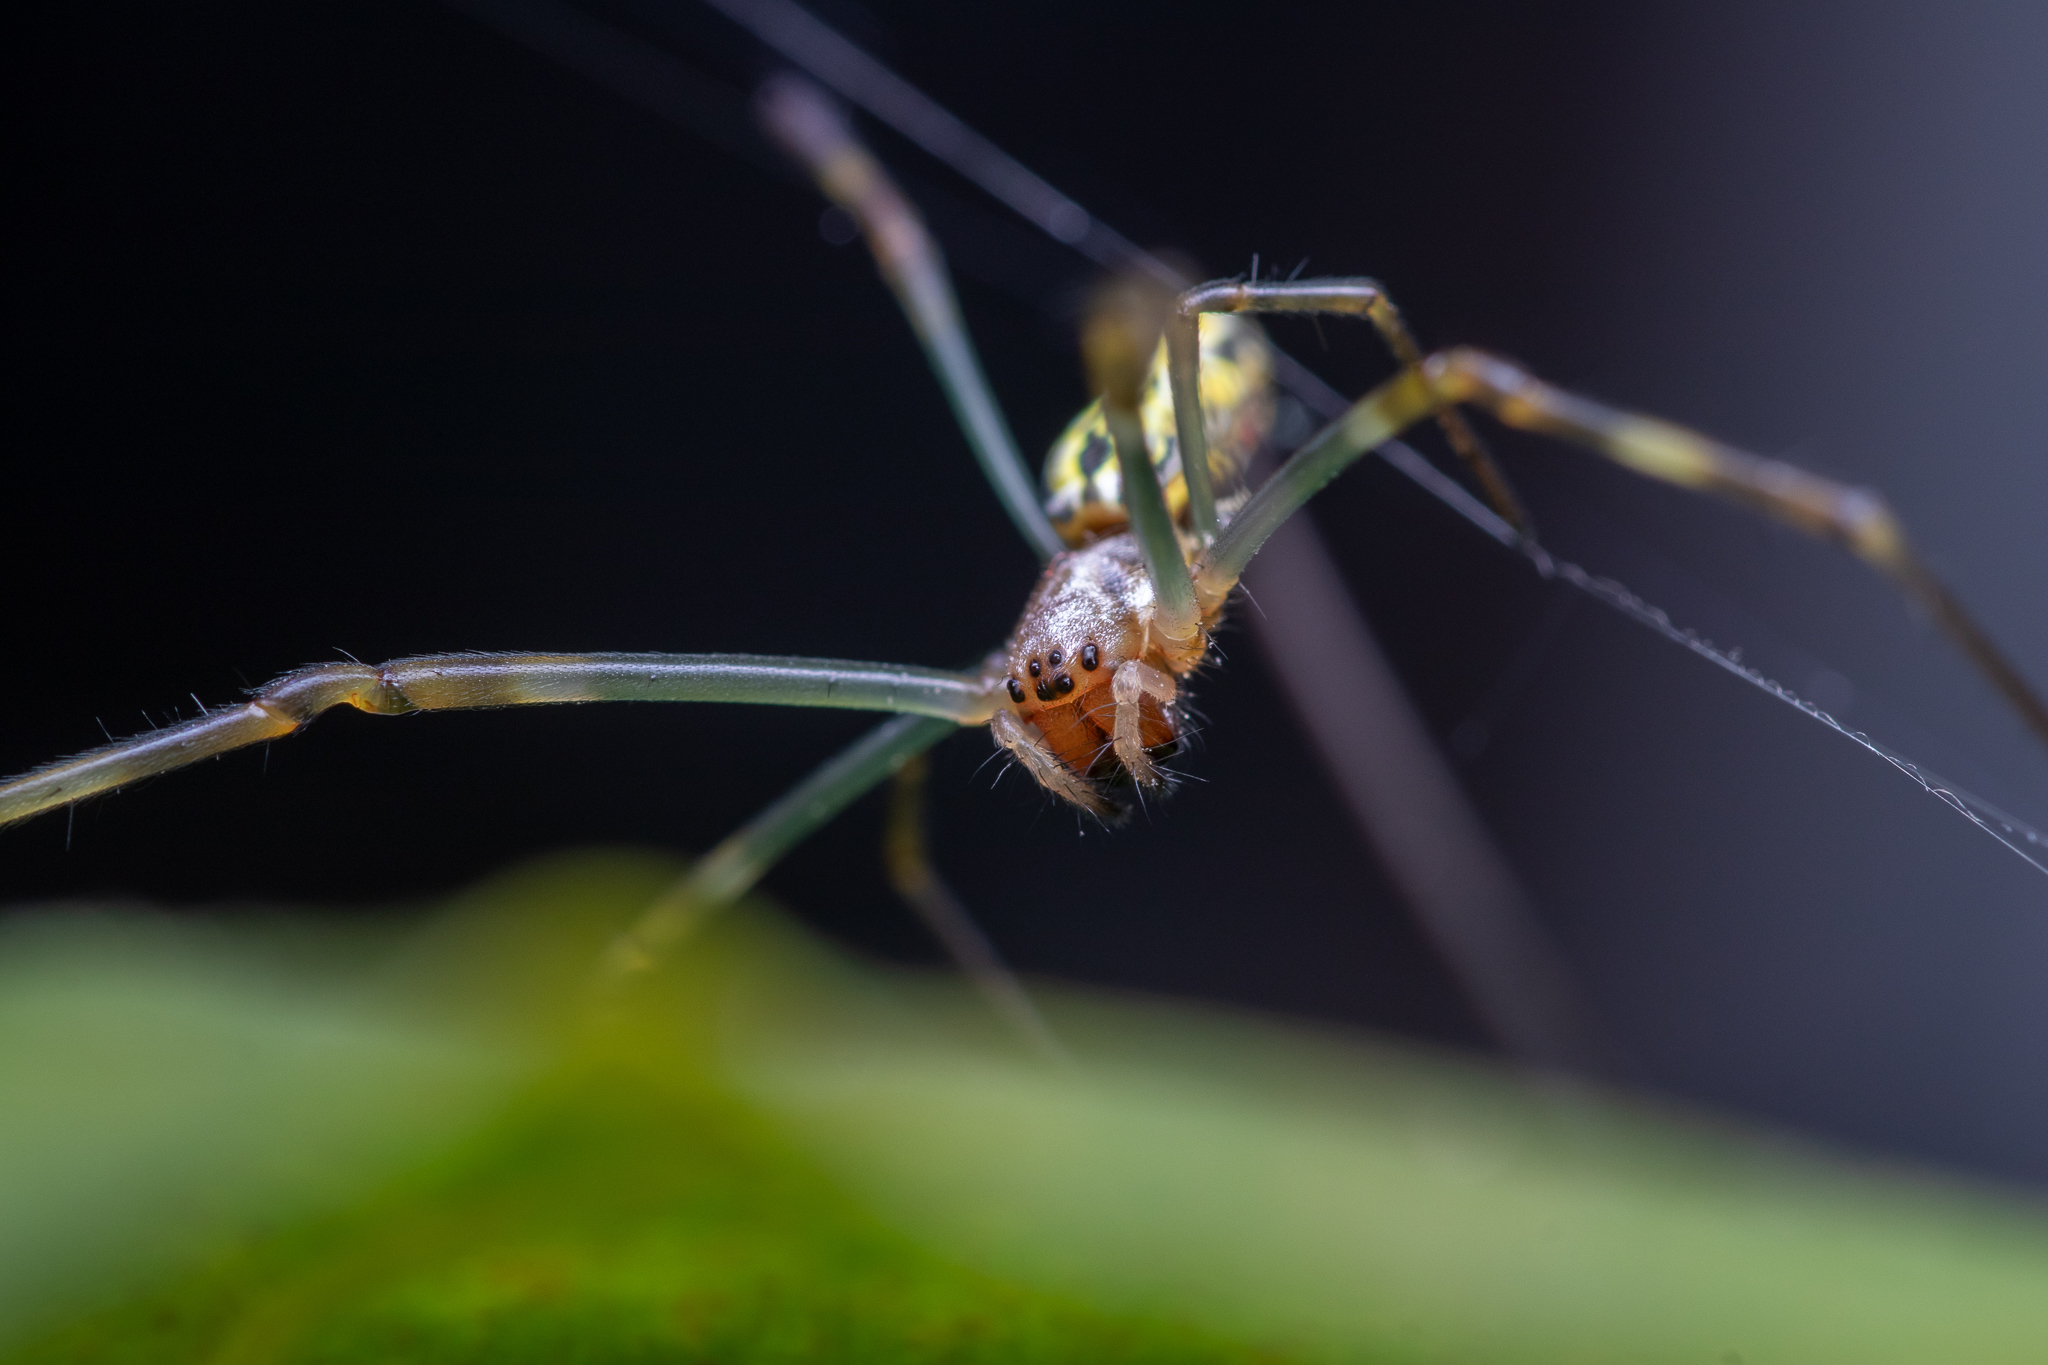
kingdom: Animalia
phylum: Arthropoda
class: Arachnida
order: Araneae
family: Araneidae
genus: Trichonephila
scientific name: Trichonephila clavata
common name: Jorō spider
